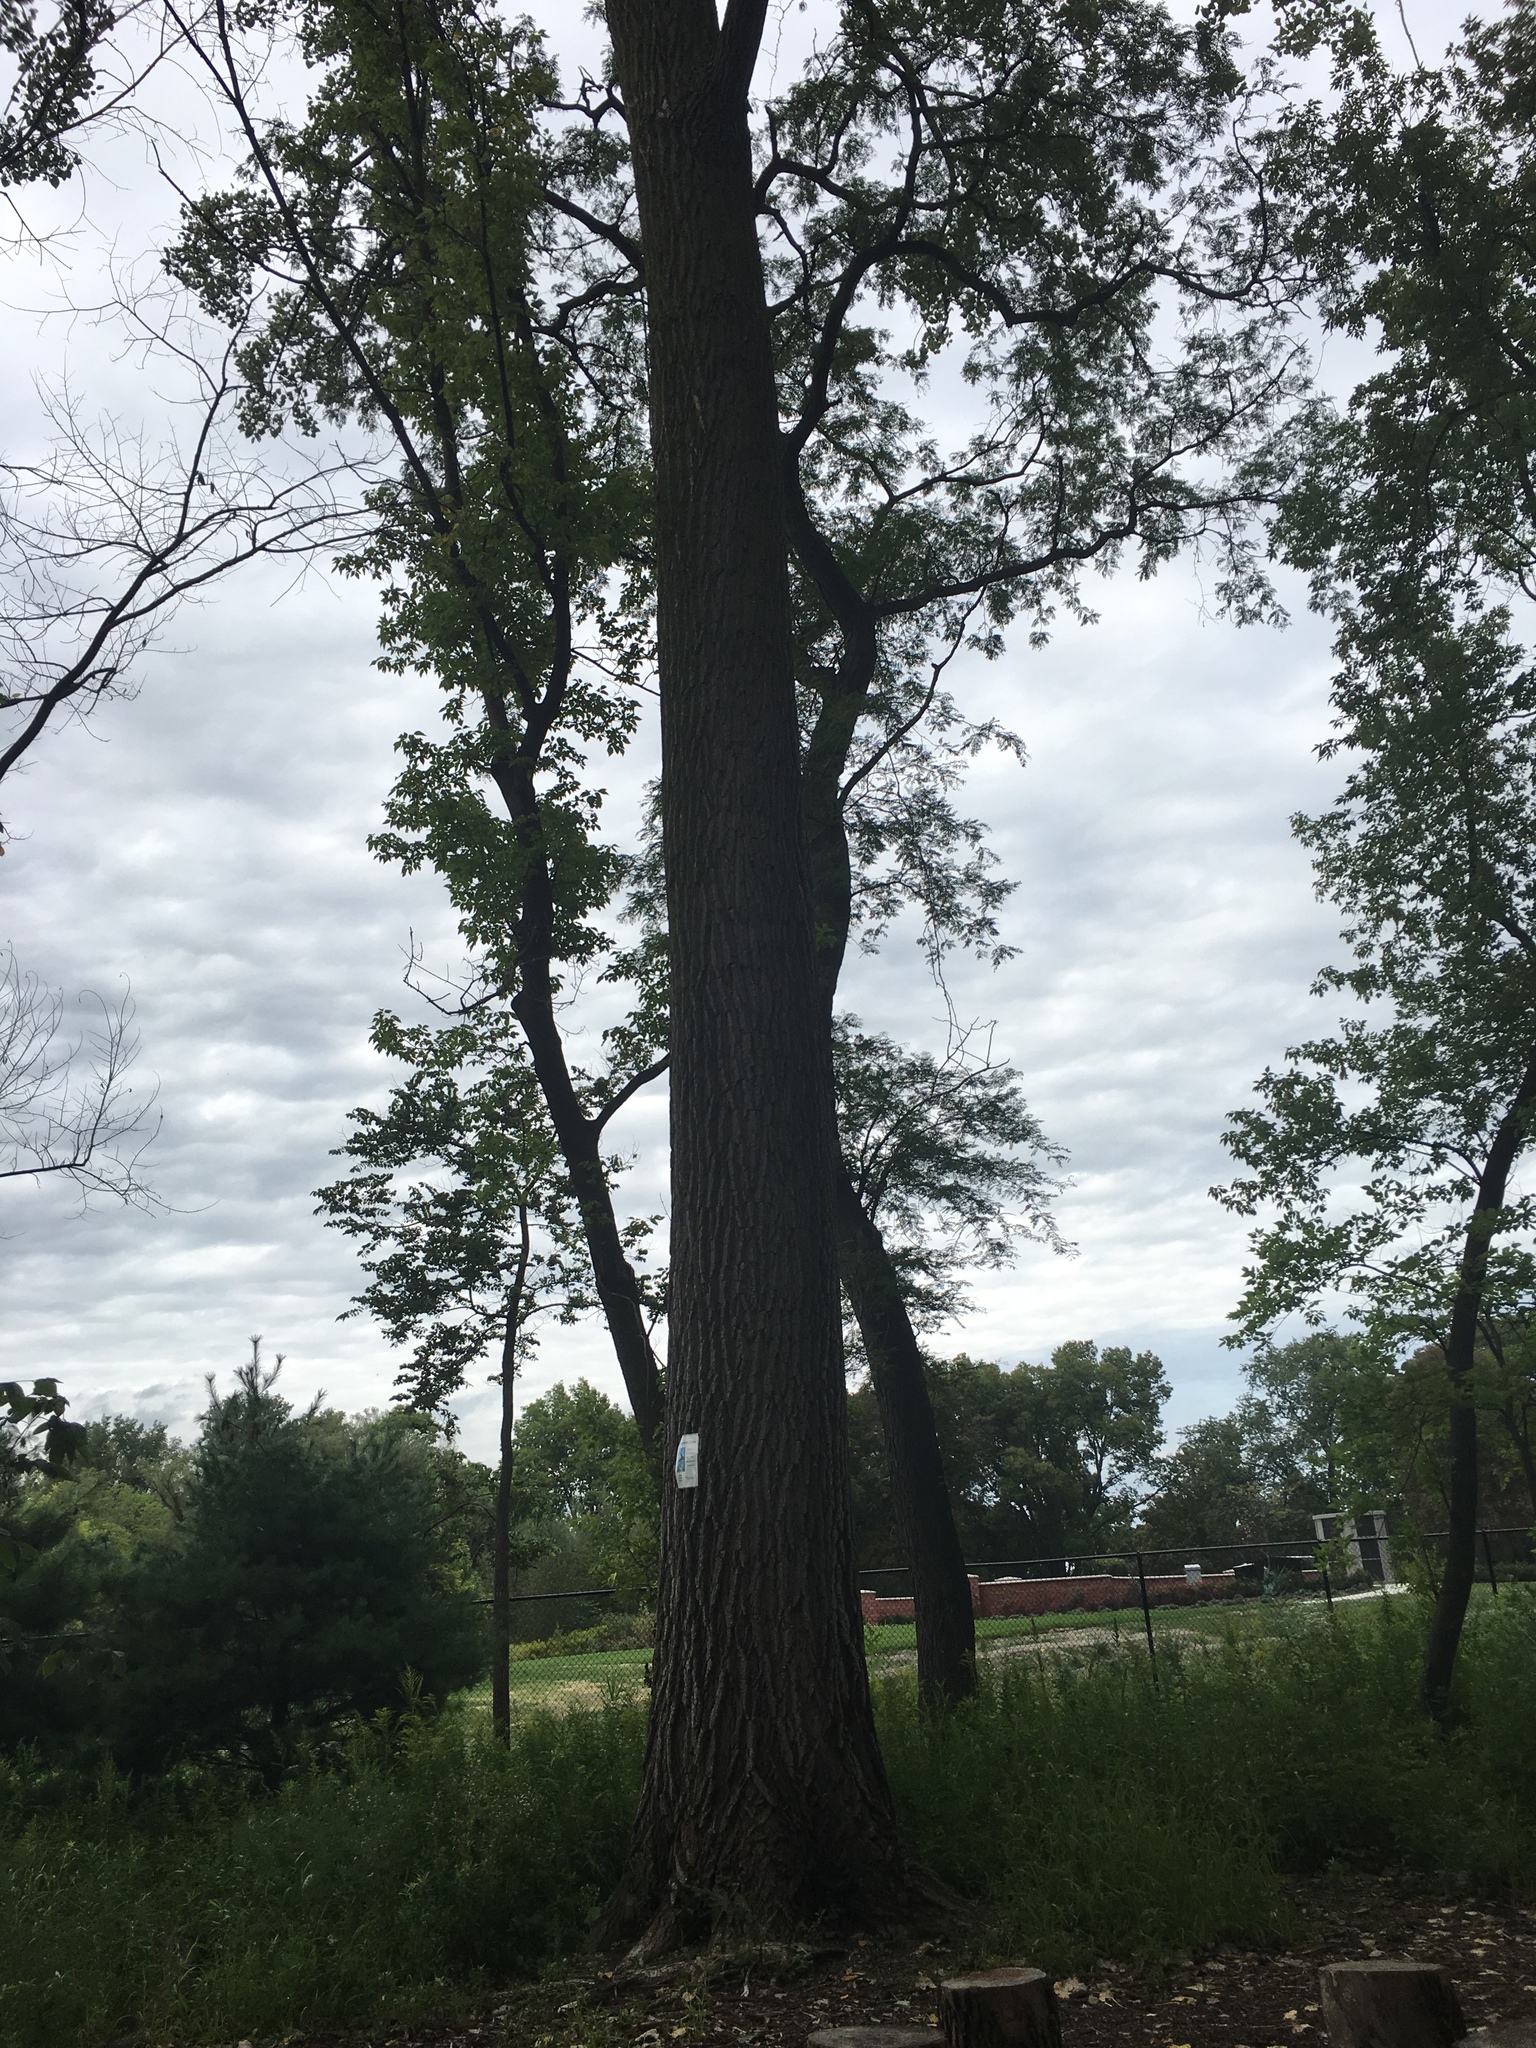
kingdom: Plantae
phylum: Tracheophyta
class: Magnoliopsida
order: Malpighiales
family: Salicaceae
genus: Populus
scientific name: Populus deltoides
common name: Eastern cottonwood
